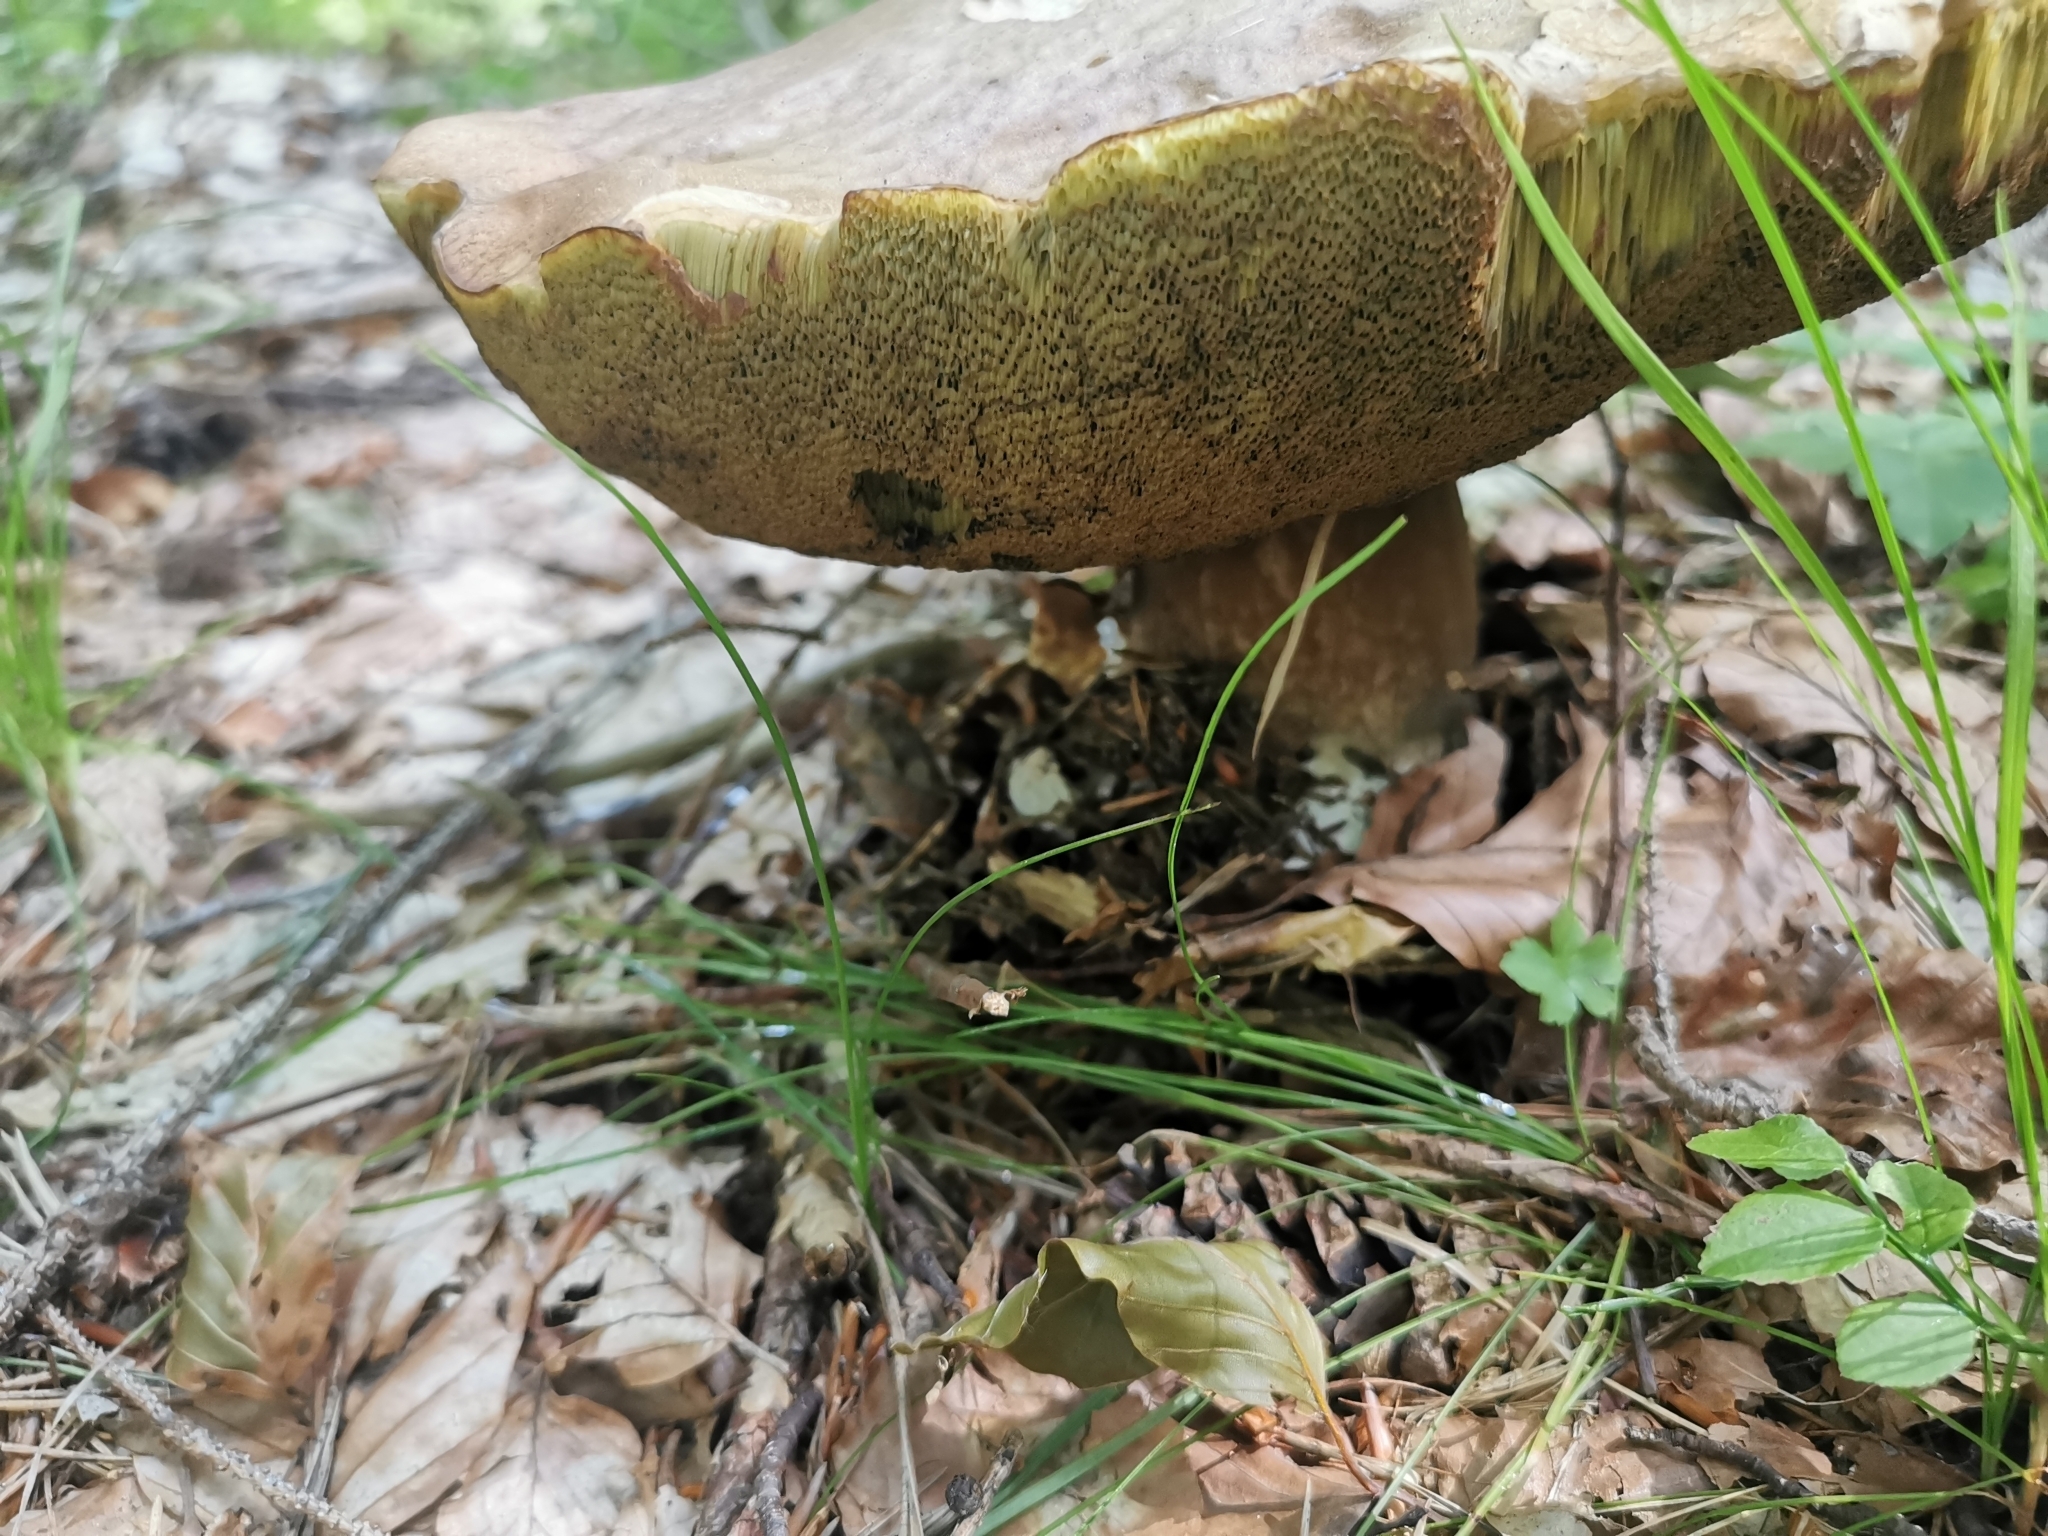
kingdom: Fungi
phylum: Basidiomycota
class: Agaricomycetes
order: Boletales
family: Boletaceae
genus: Boletus
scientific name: Boletus reticulatus
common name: Summer bolete
